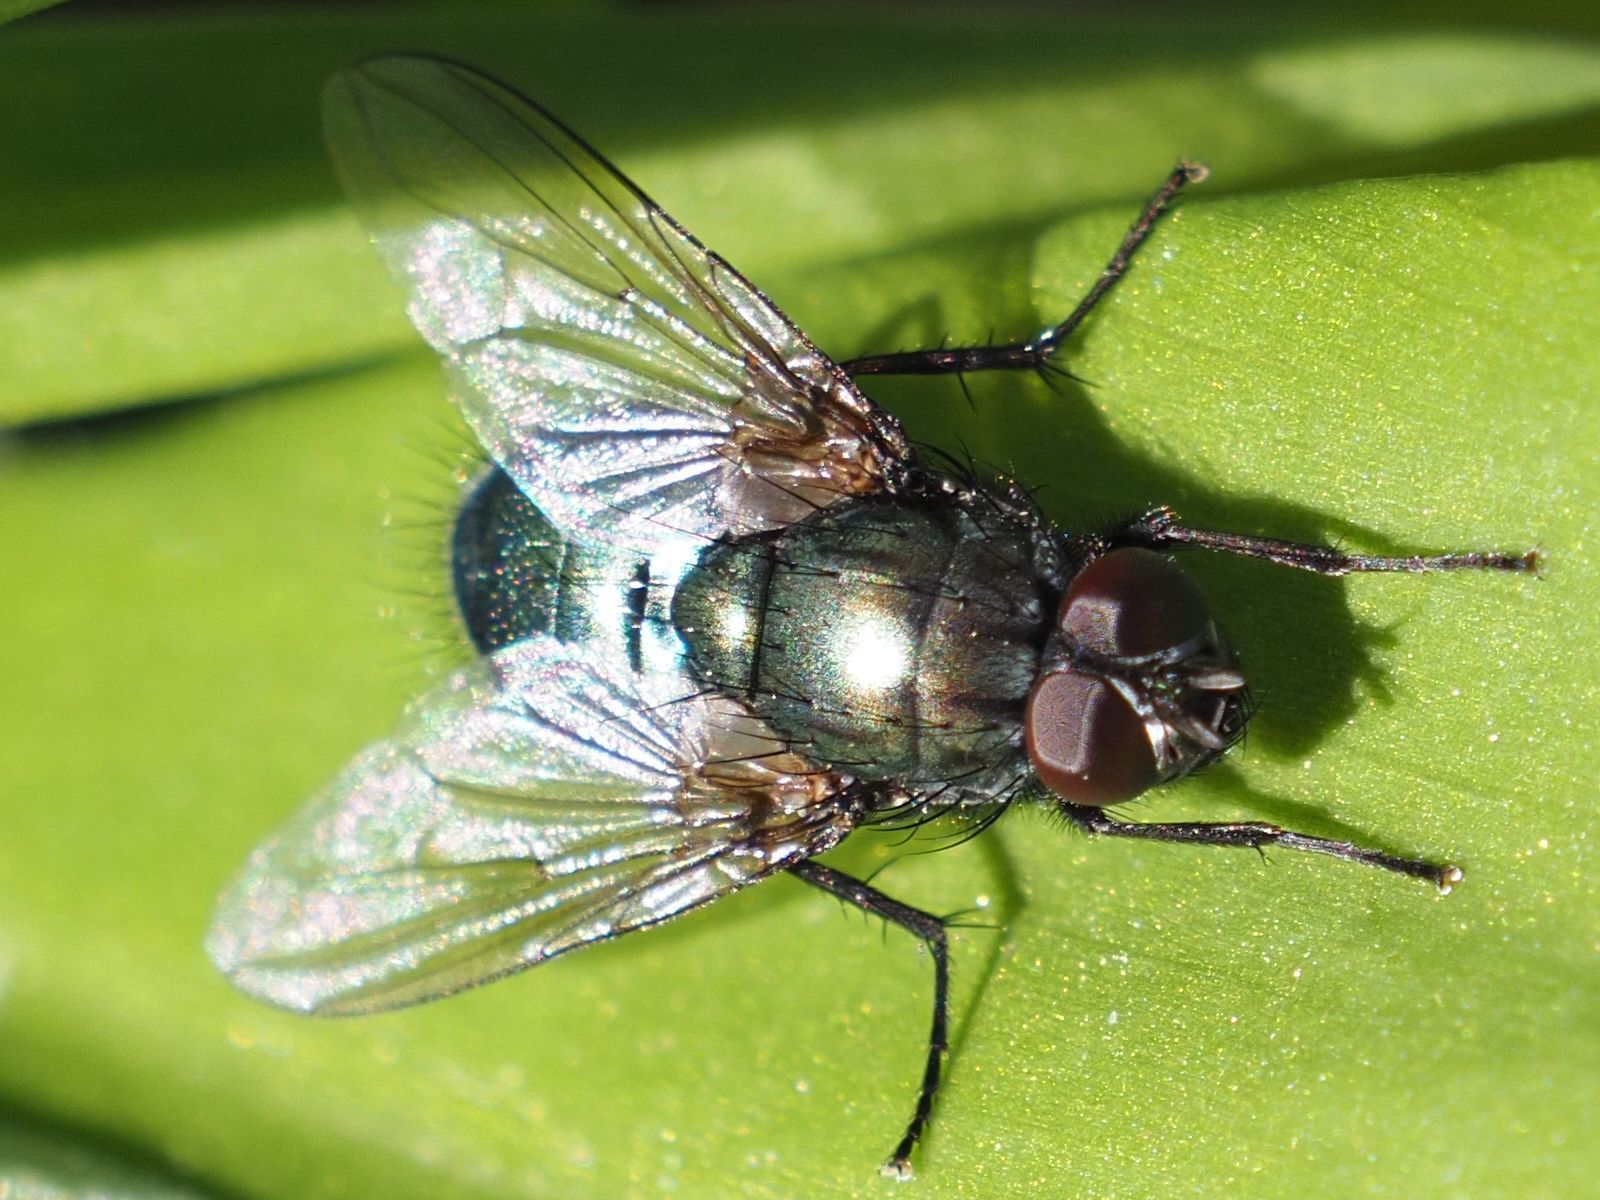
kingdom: Animalia
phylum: Arthropoda
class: Insecta
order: Diptera
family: Muscidae
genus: Dasyphora
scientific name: Dasyphora cyanella
